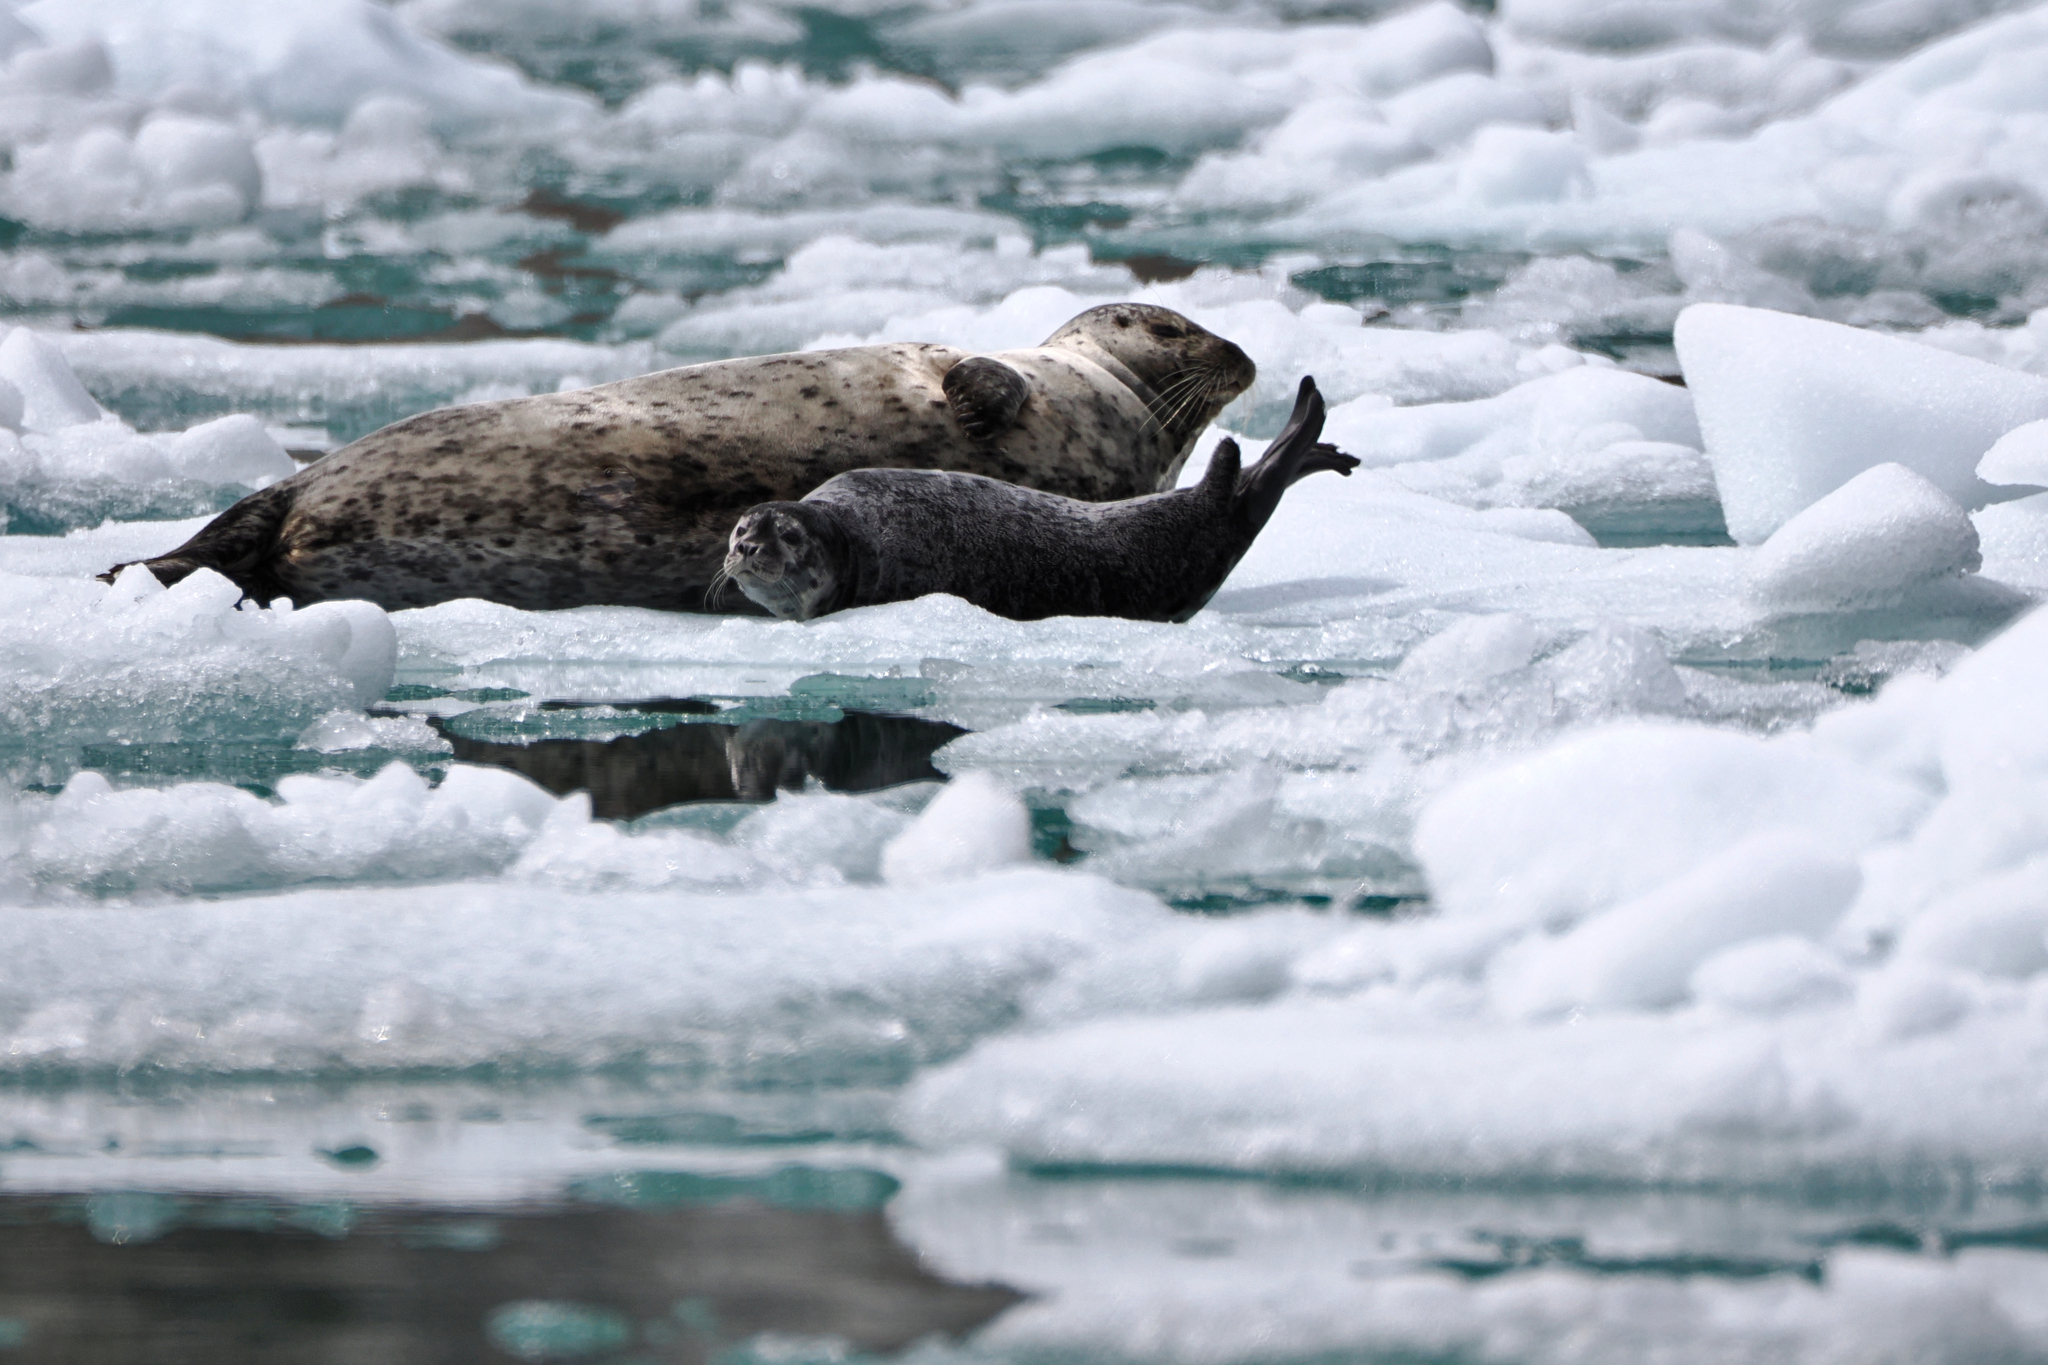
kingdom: Animalia
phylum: Chordata
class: Mammalia
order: Carnivora
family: Phocidae
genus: Phoca
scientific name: Phoca vitulina
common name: Harbor seal
